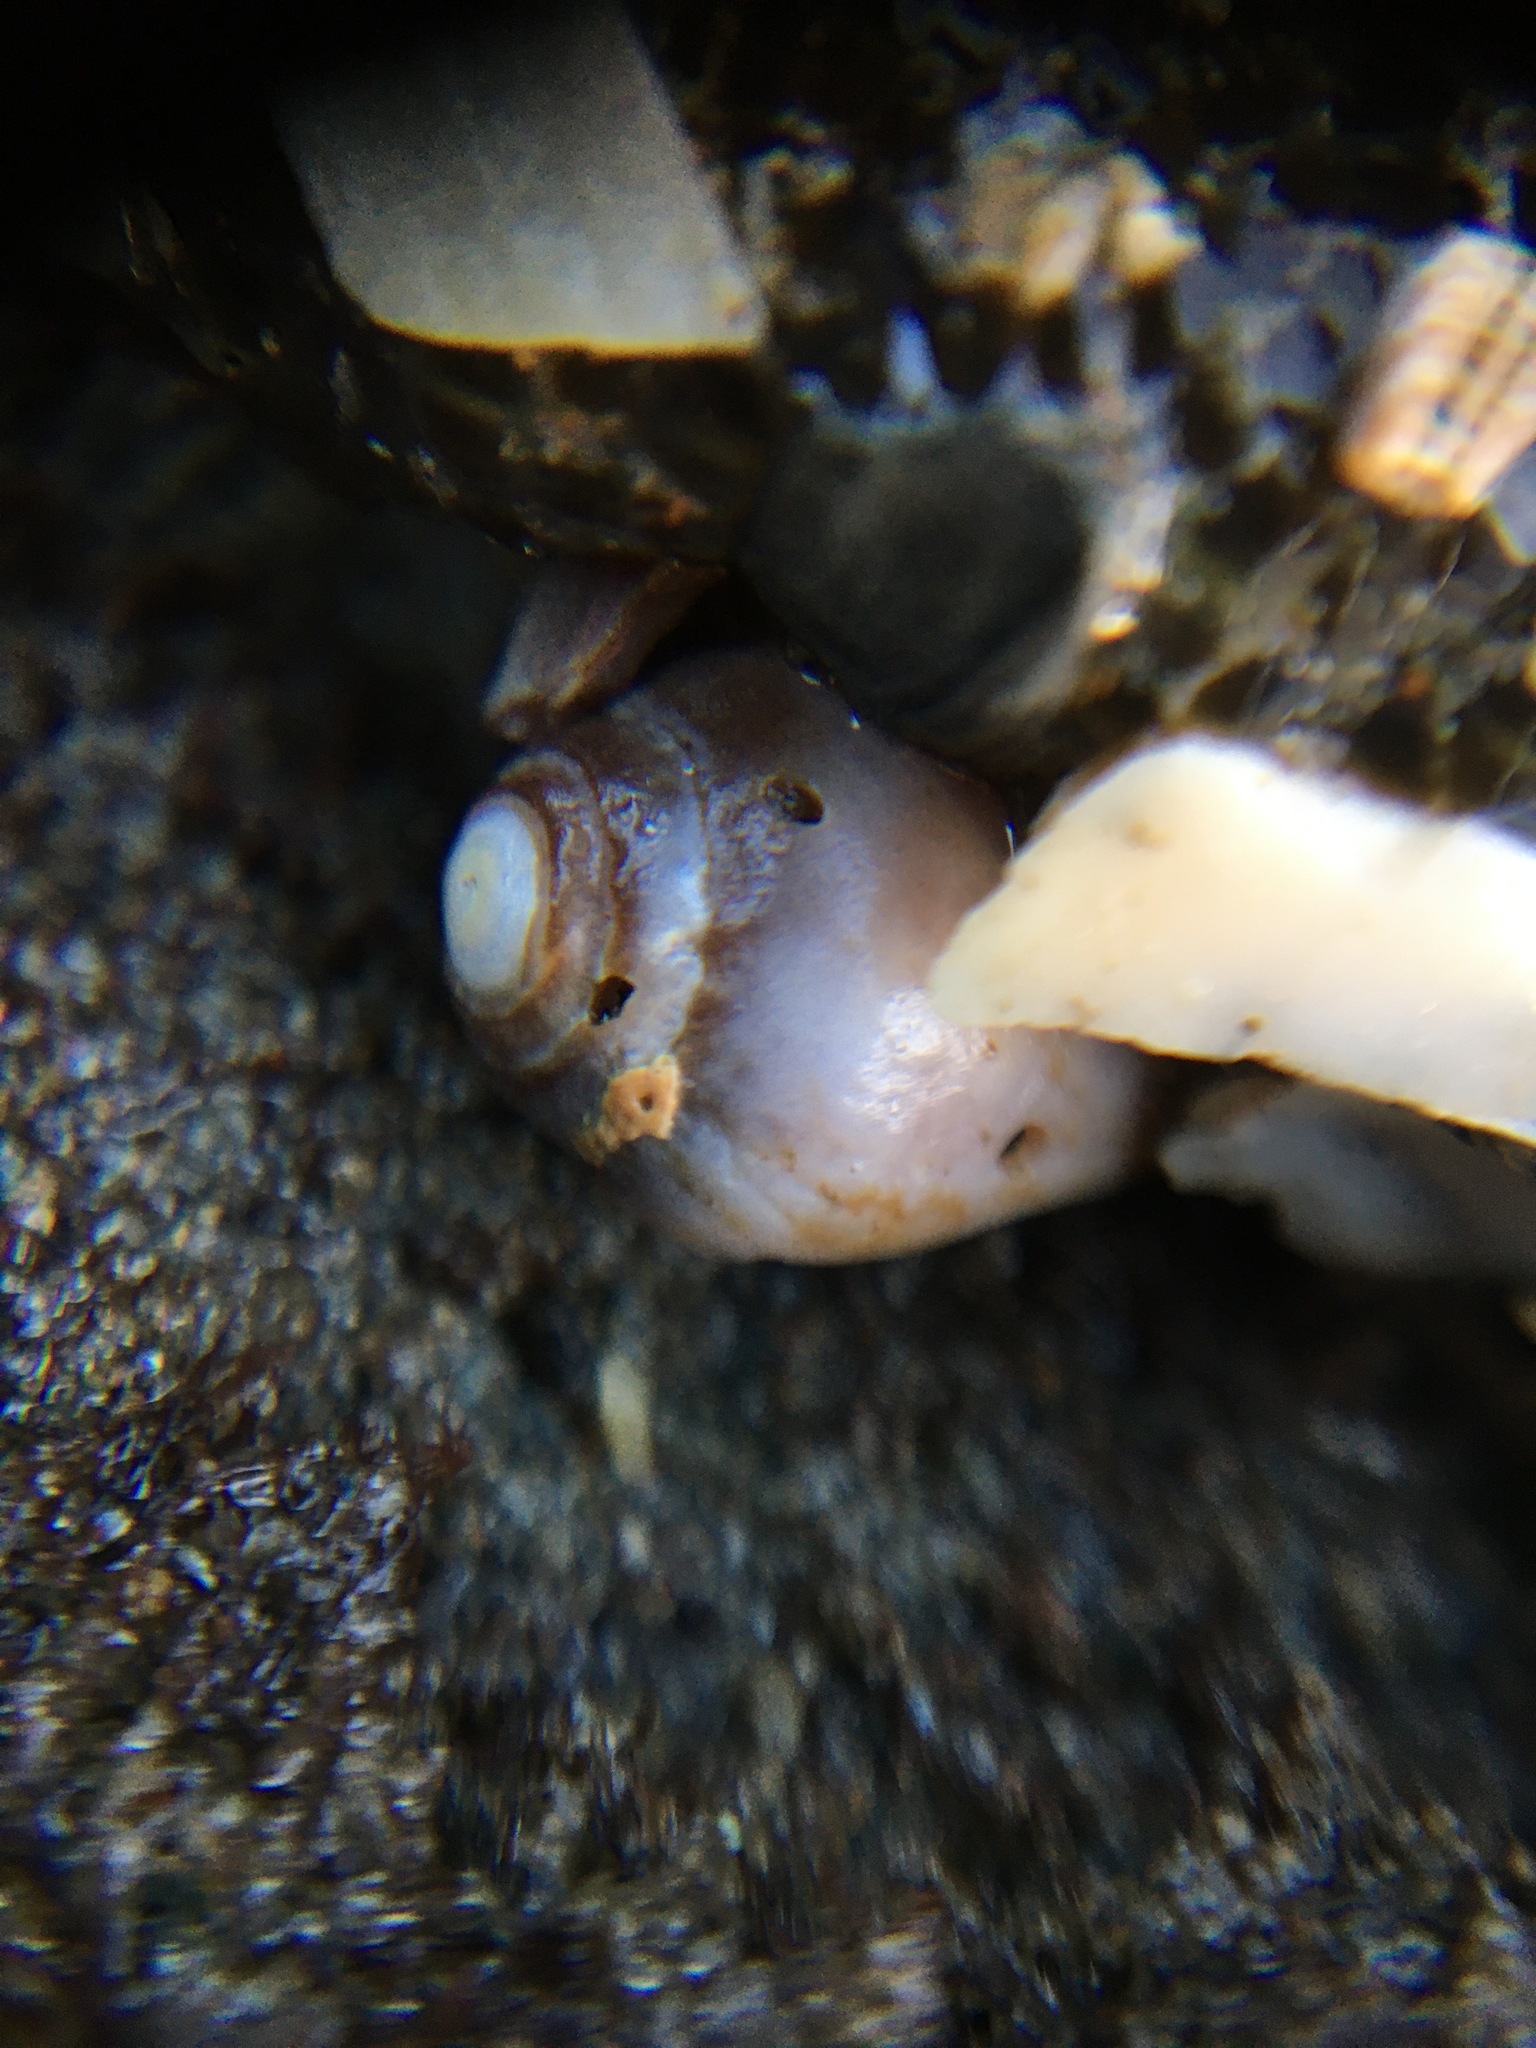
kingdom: Animalia
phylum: Mollusca
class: Gastropoda
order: Neogastropoda
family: Conidae
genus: Californiconus
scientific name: Californiconus californicus
